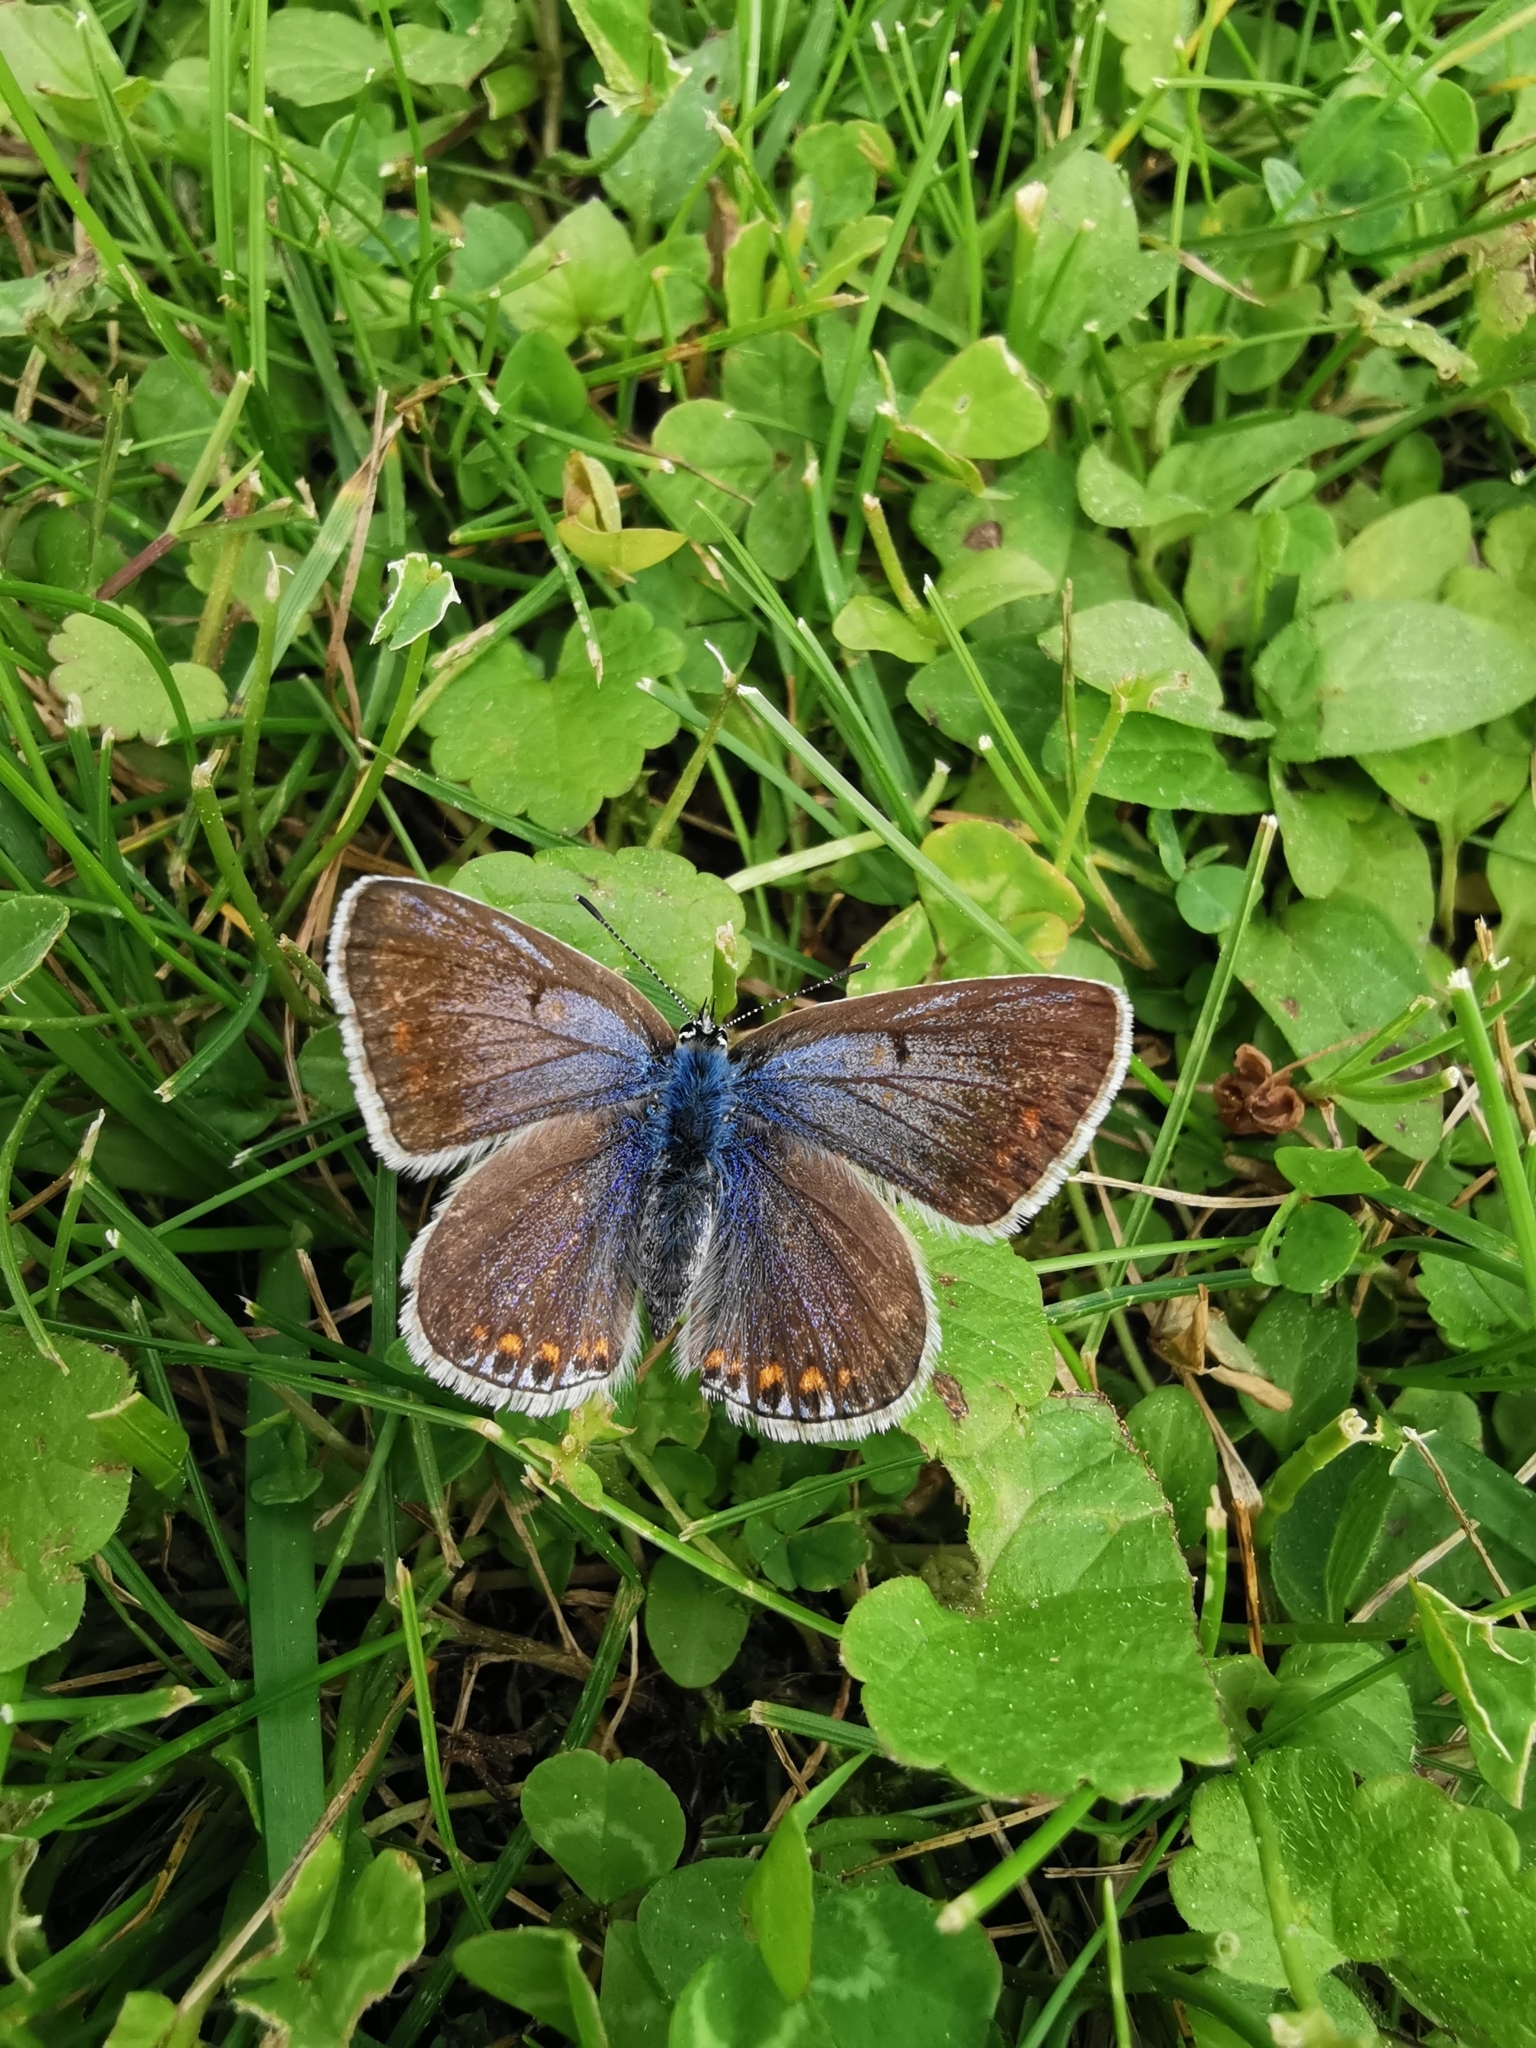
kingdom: Animalia
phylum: Arthropoda
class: Insecta
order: Lepidoptera
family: Lycaenidae
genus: Polyommatus
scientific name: Polyommatus icarus
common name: Common blue
